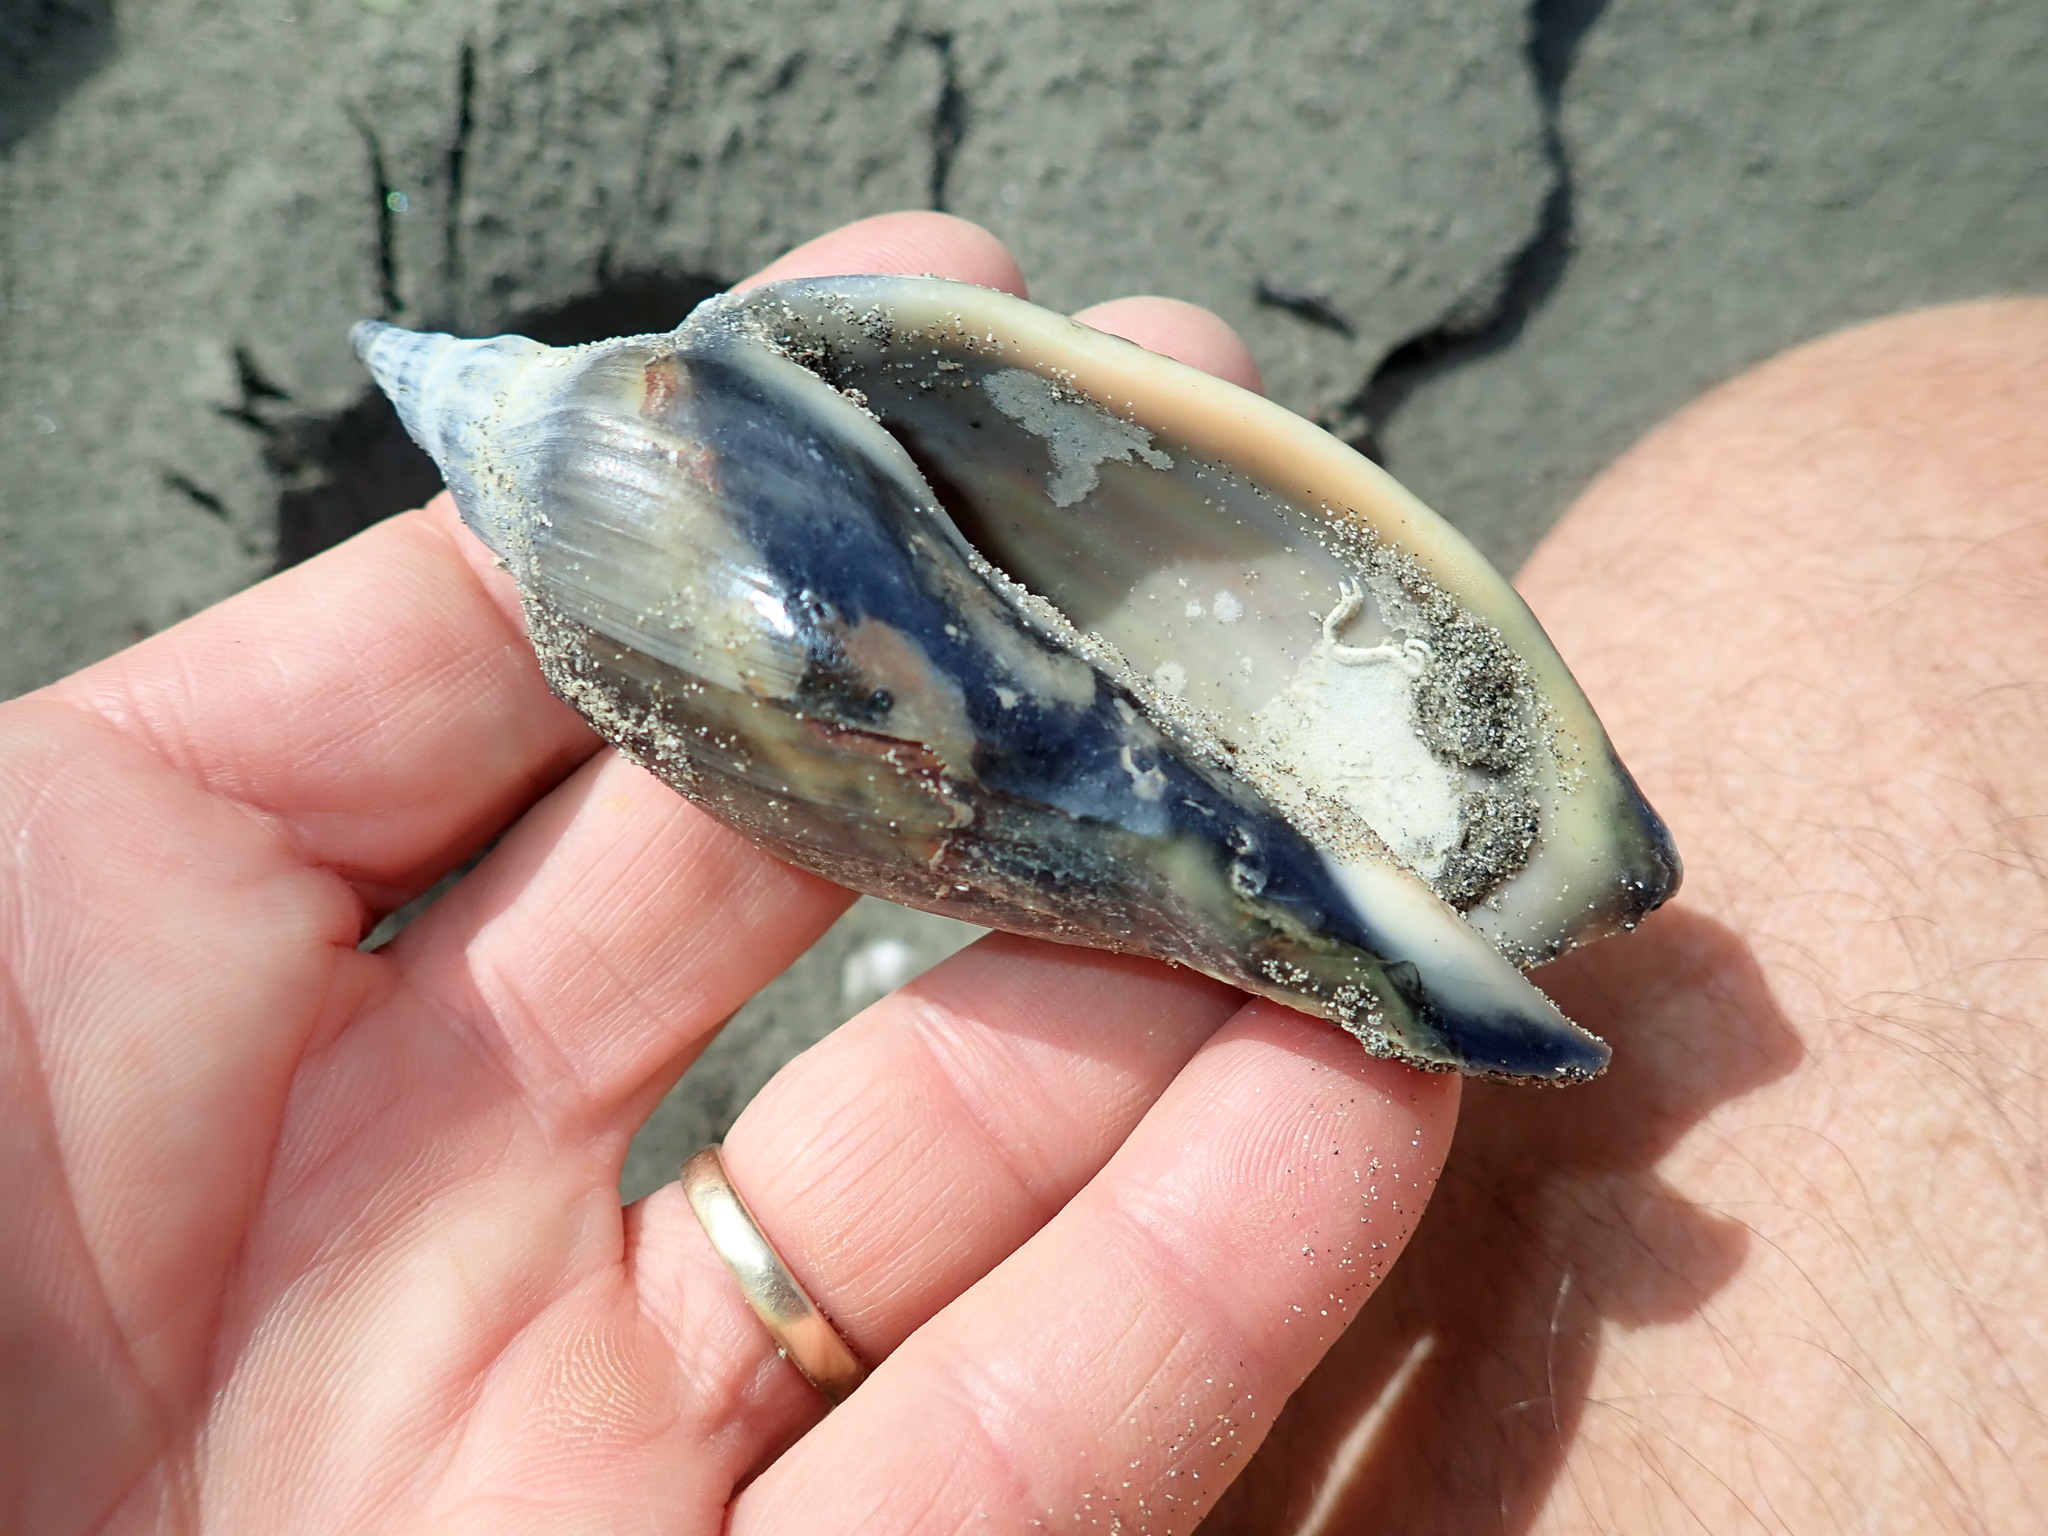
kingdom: Animalia
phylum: Mollusca
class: Gastropoda
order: Neogastropoda
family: Volutidae
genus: Alcithoe
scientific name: Alcithoe arabica
